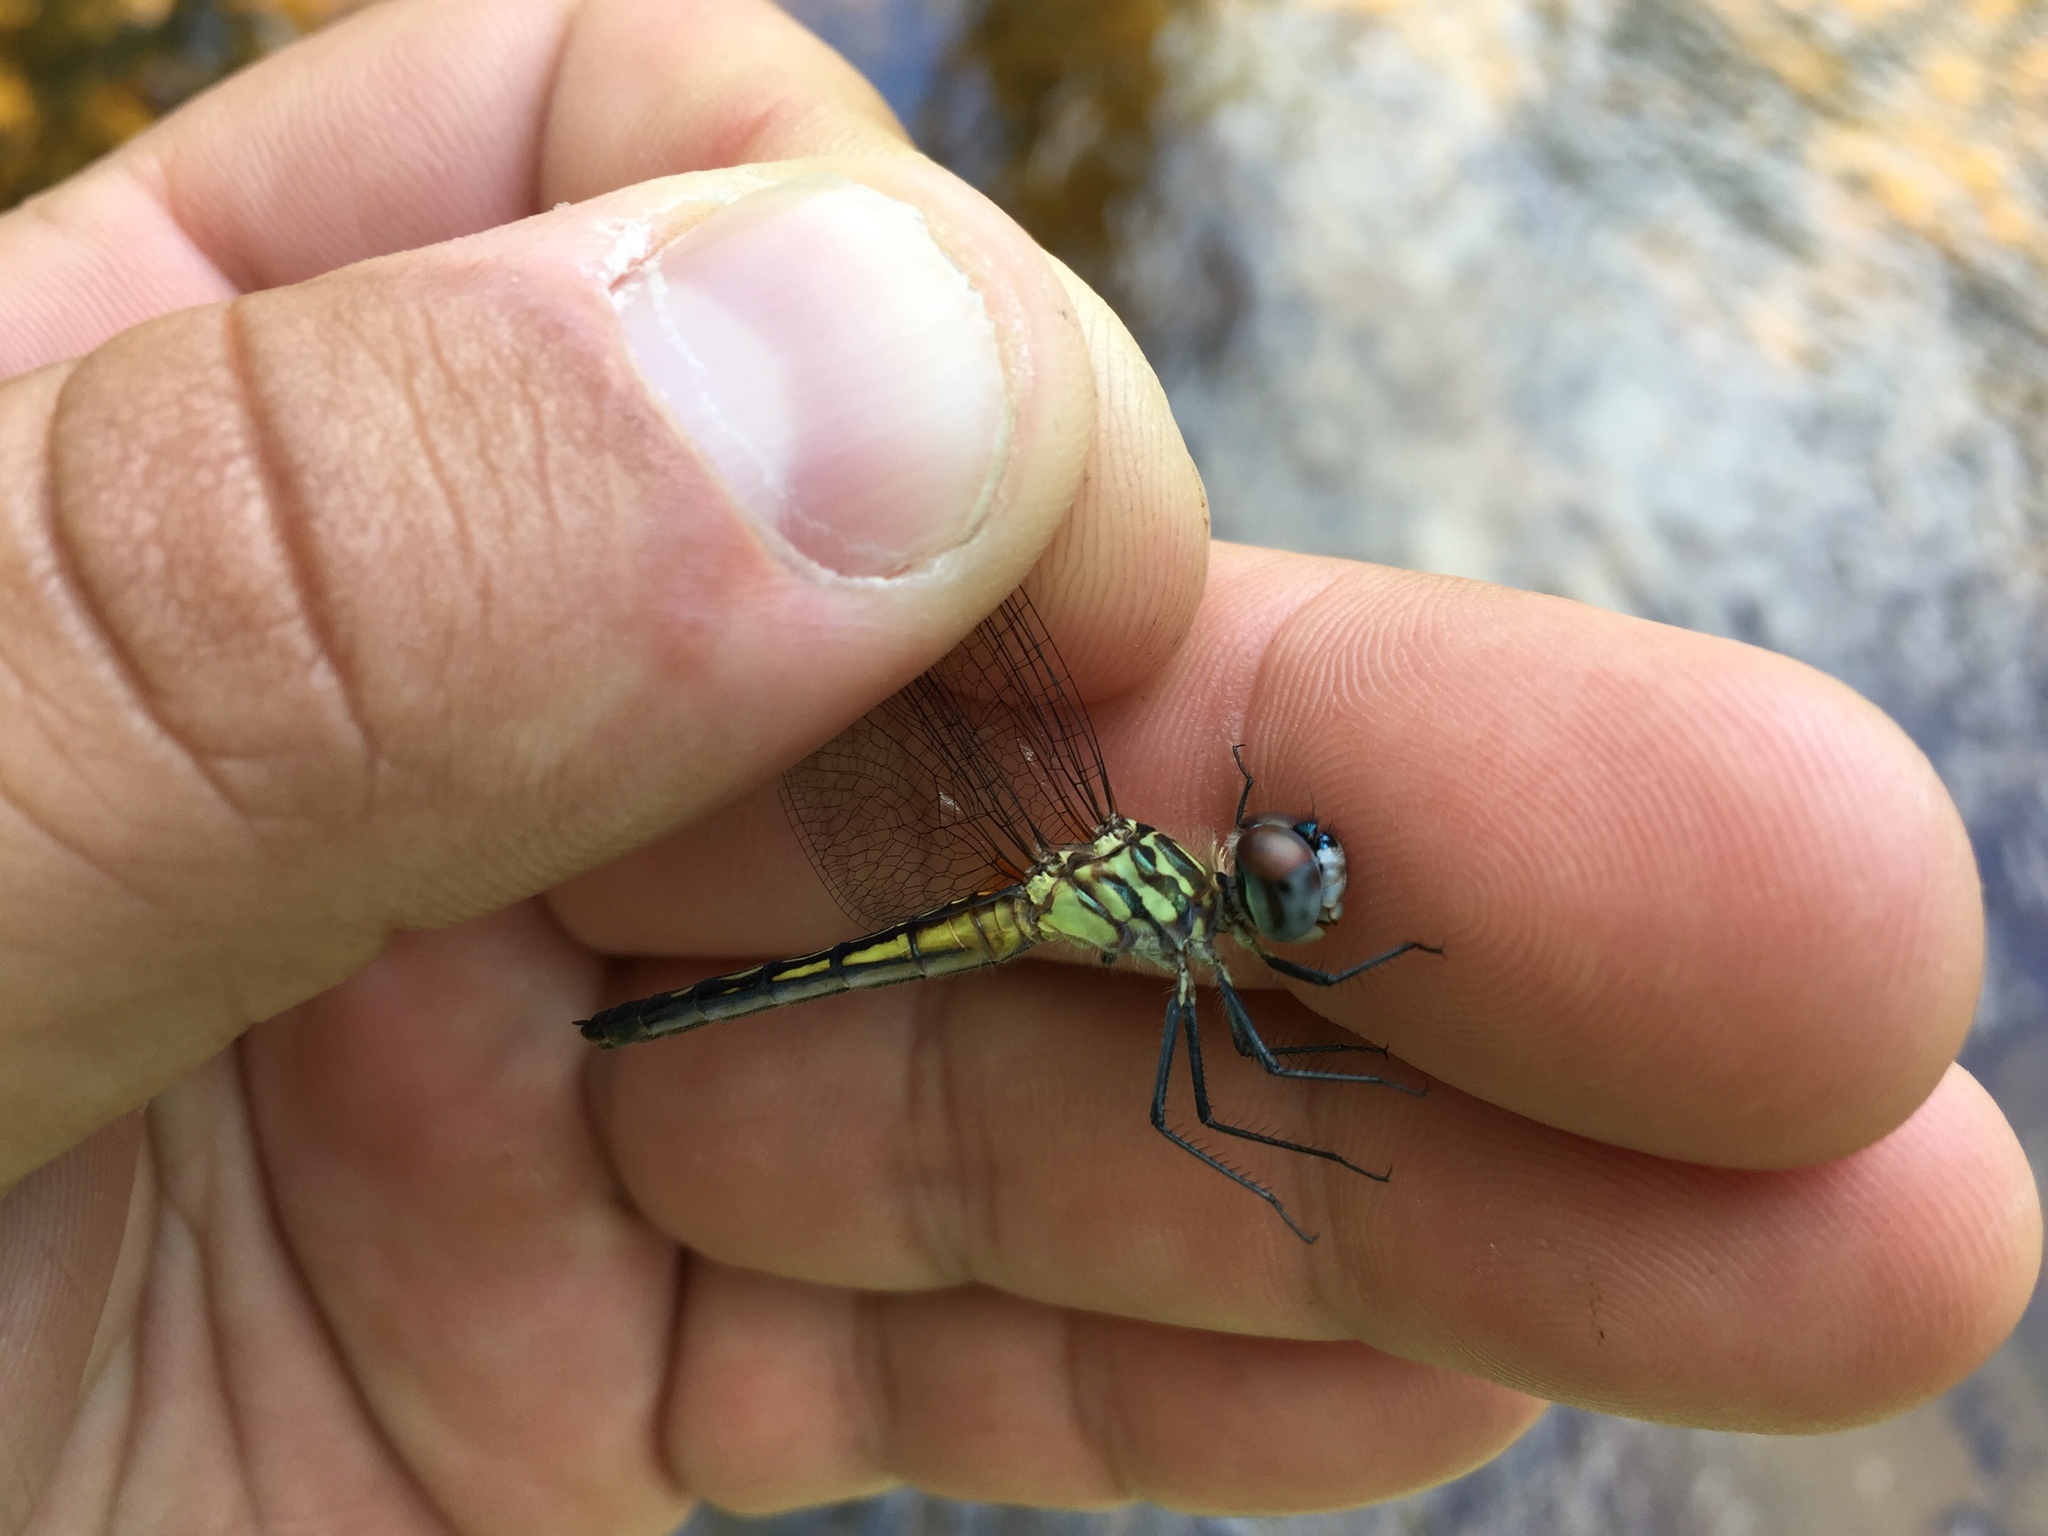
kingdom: Animalia
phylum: Arthropoda
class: Insecta
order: Odonata
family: Libellulidae
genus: Pachydiplax
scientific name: Pachydiplax longipennis
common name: Blue dasher
